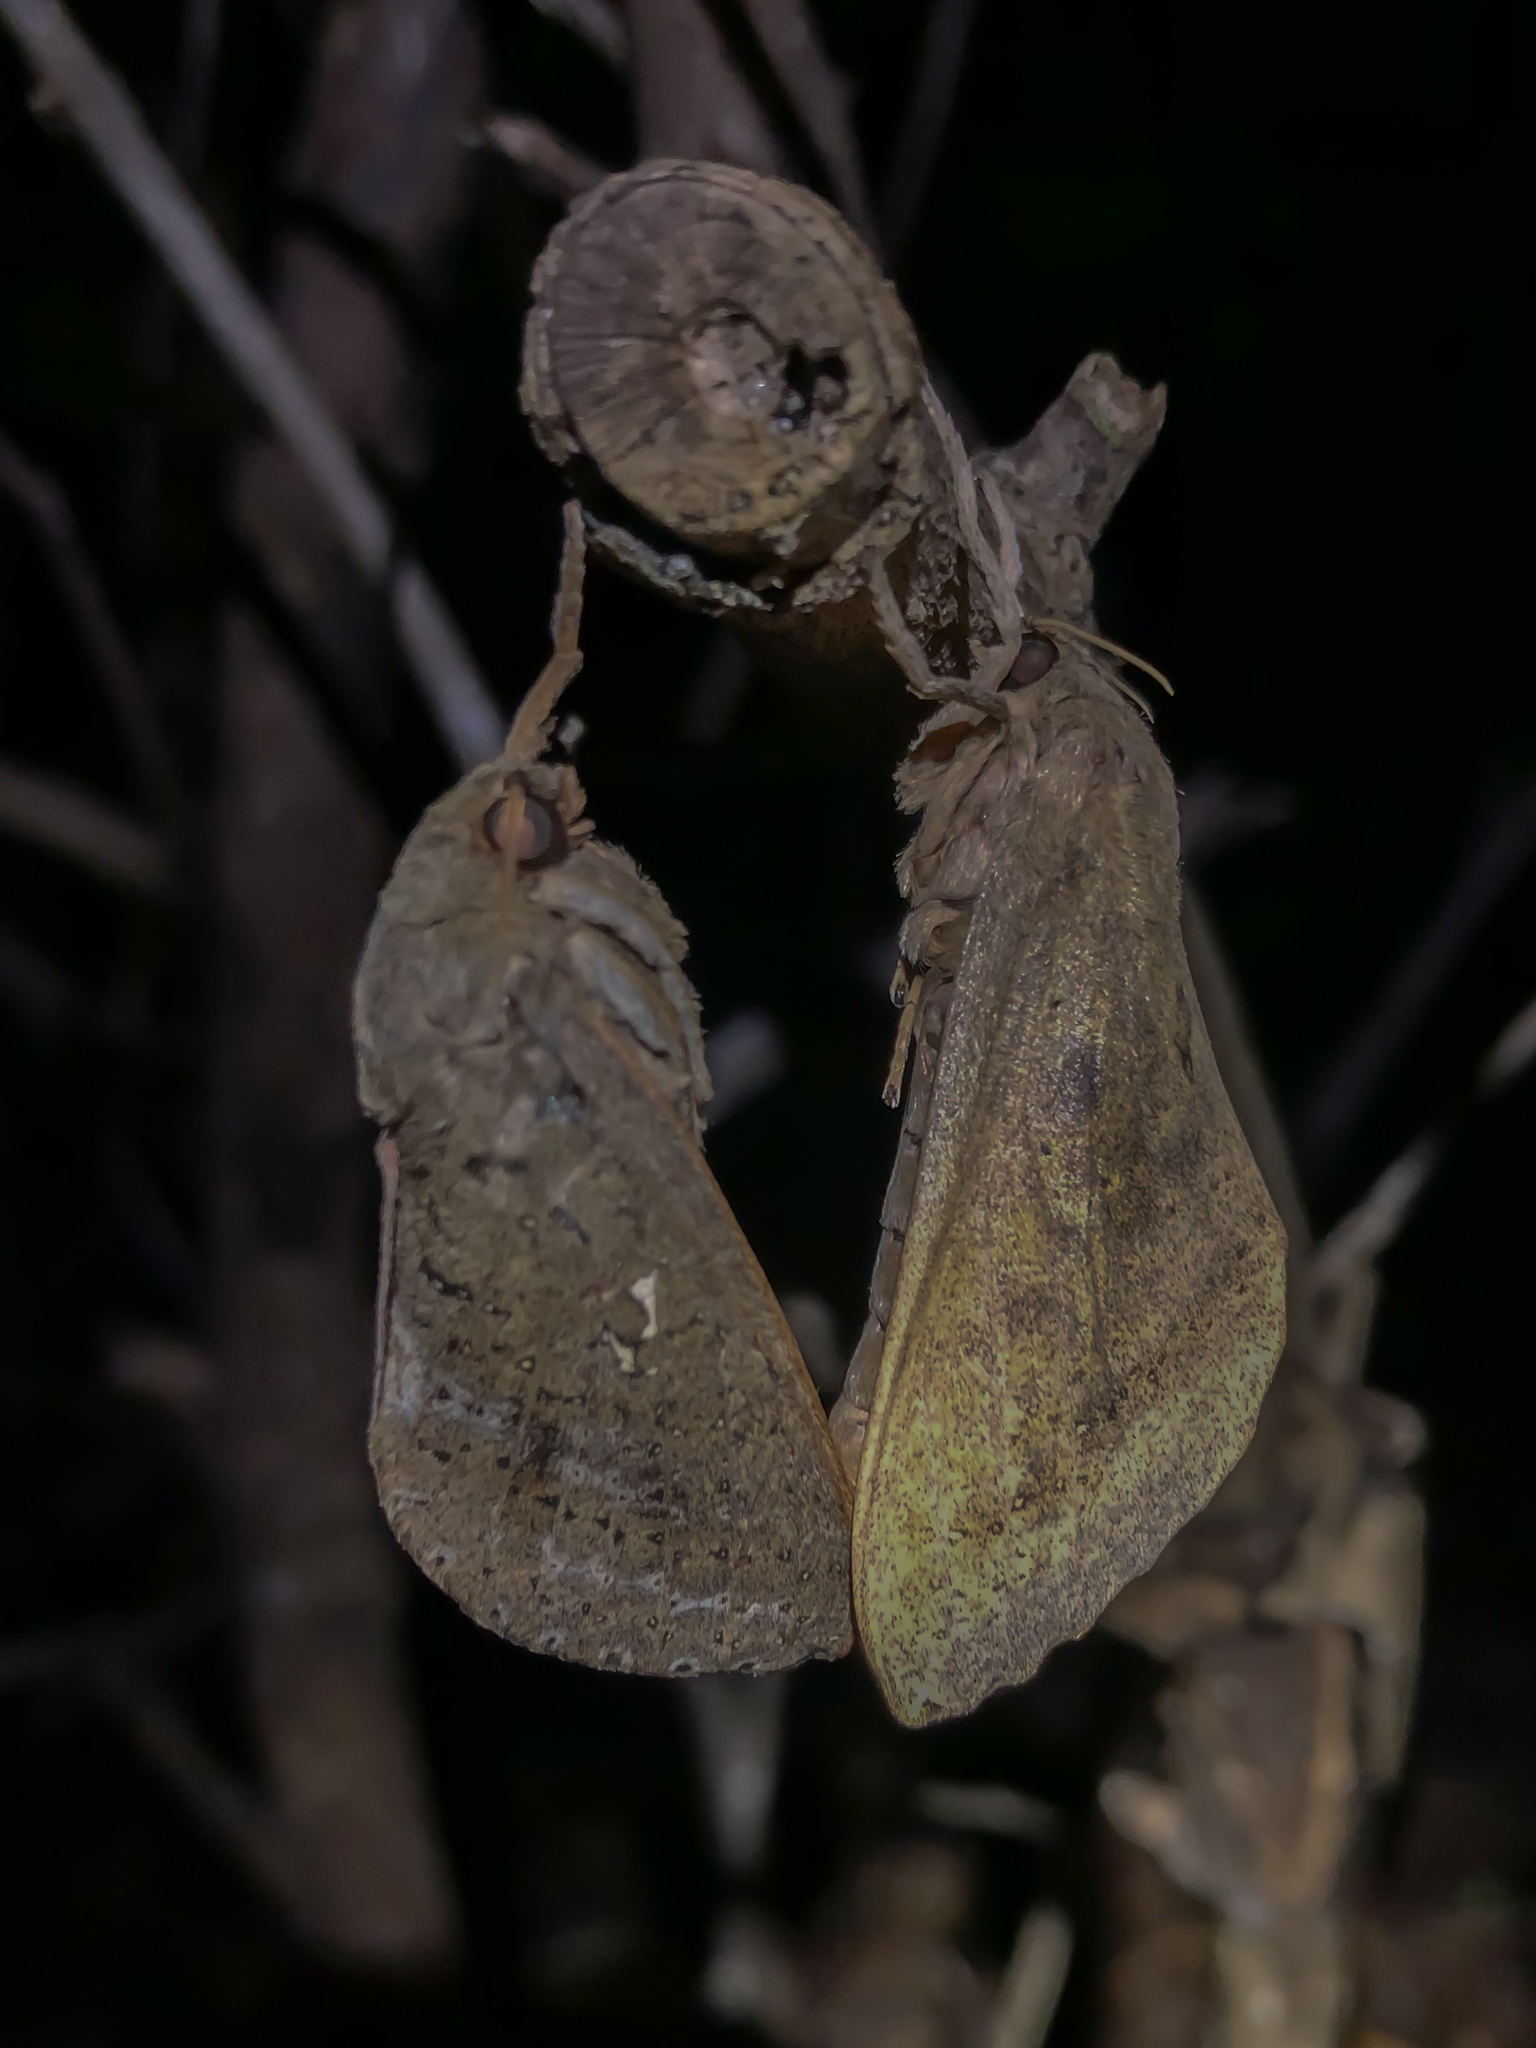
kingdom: Animalia
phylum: Arthropoda
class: Insecta
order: Lepidoptera
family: Hepialidae
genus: Dumbletonius
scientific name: Dumbletonius unimaculata
